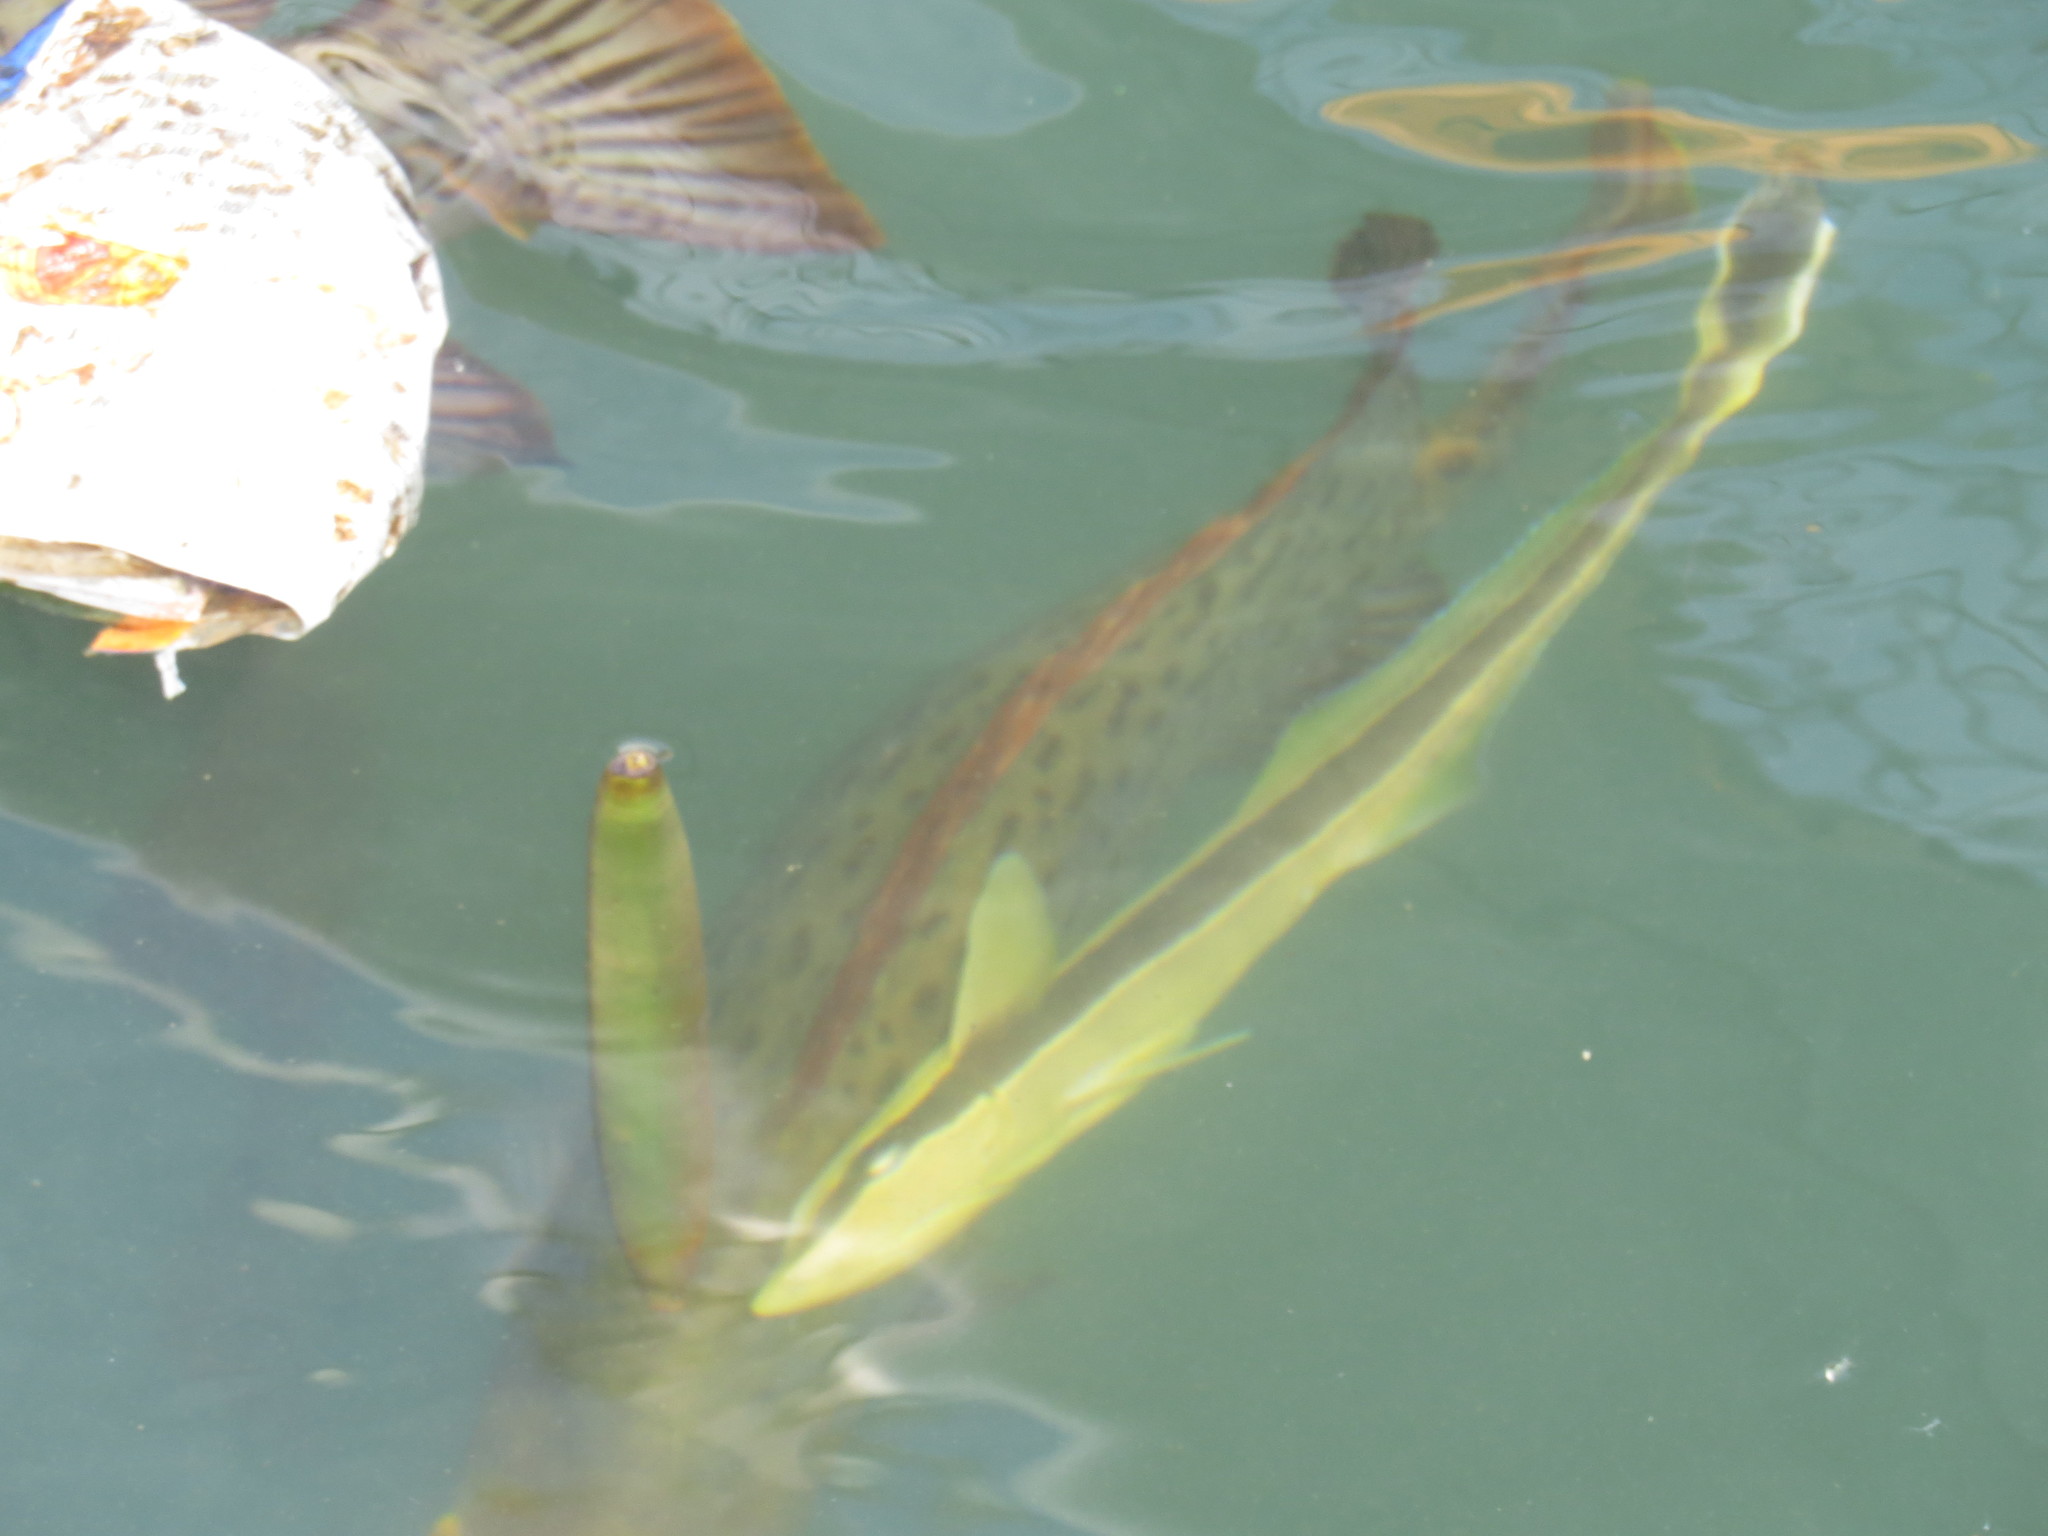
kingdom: Animalia
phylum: Chordata
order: Perciformes
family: Echeneidae
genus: Echeneis
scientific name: Echeneis naucrates
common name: Sharksucker
